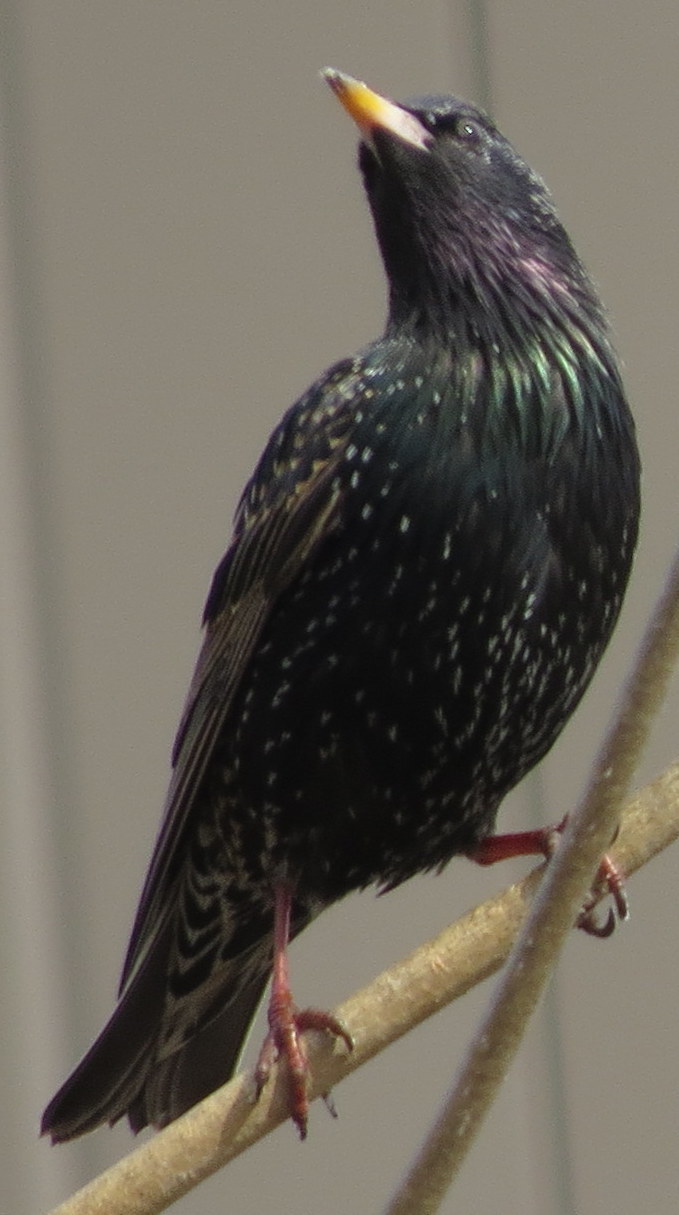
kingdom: Animalia
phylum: Chordata
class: Aves
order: Passeriformes
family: Sturnidae
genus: Sturnus
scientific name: Sturnus vulgaris
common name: Common starling
